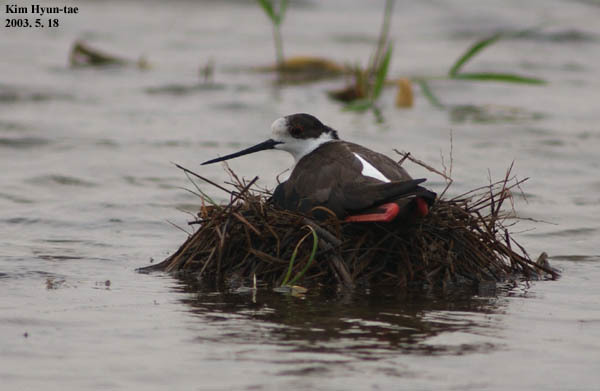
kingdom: Animalia
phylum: Chordata
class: Aves
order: Charadriiformes
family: Recurvirostridae
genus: Himantopus
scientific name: Himantopus himantopus
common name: Black-winged stilt
